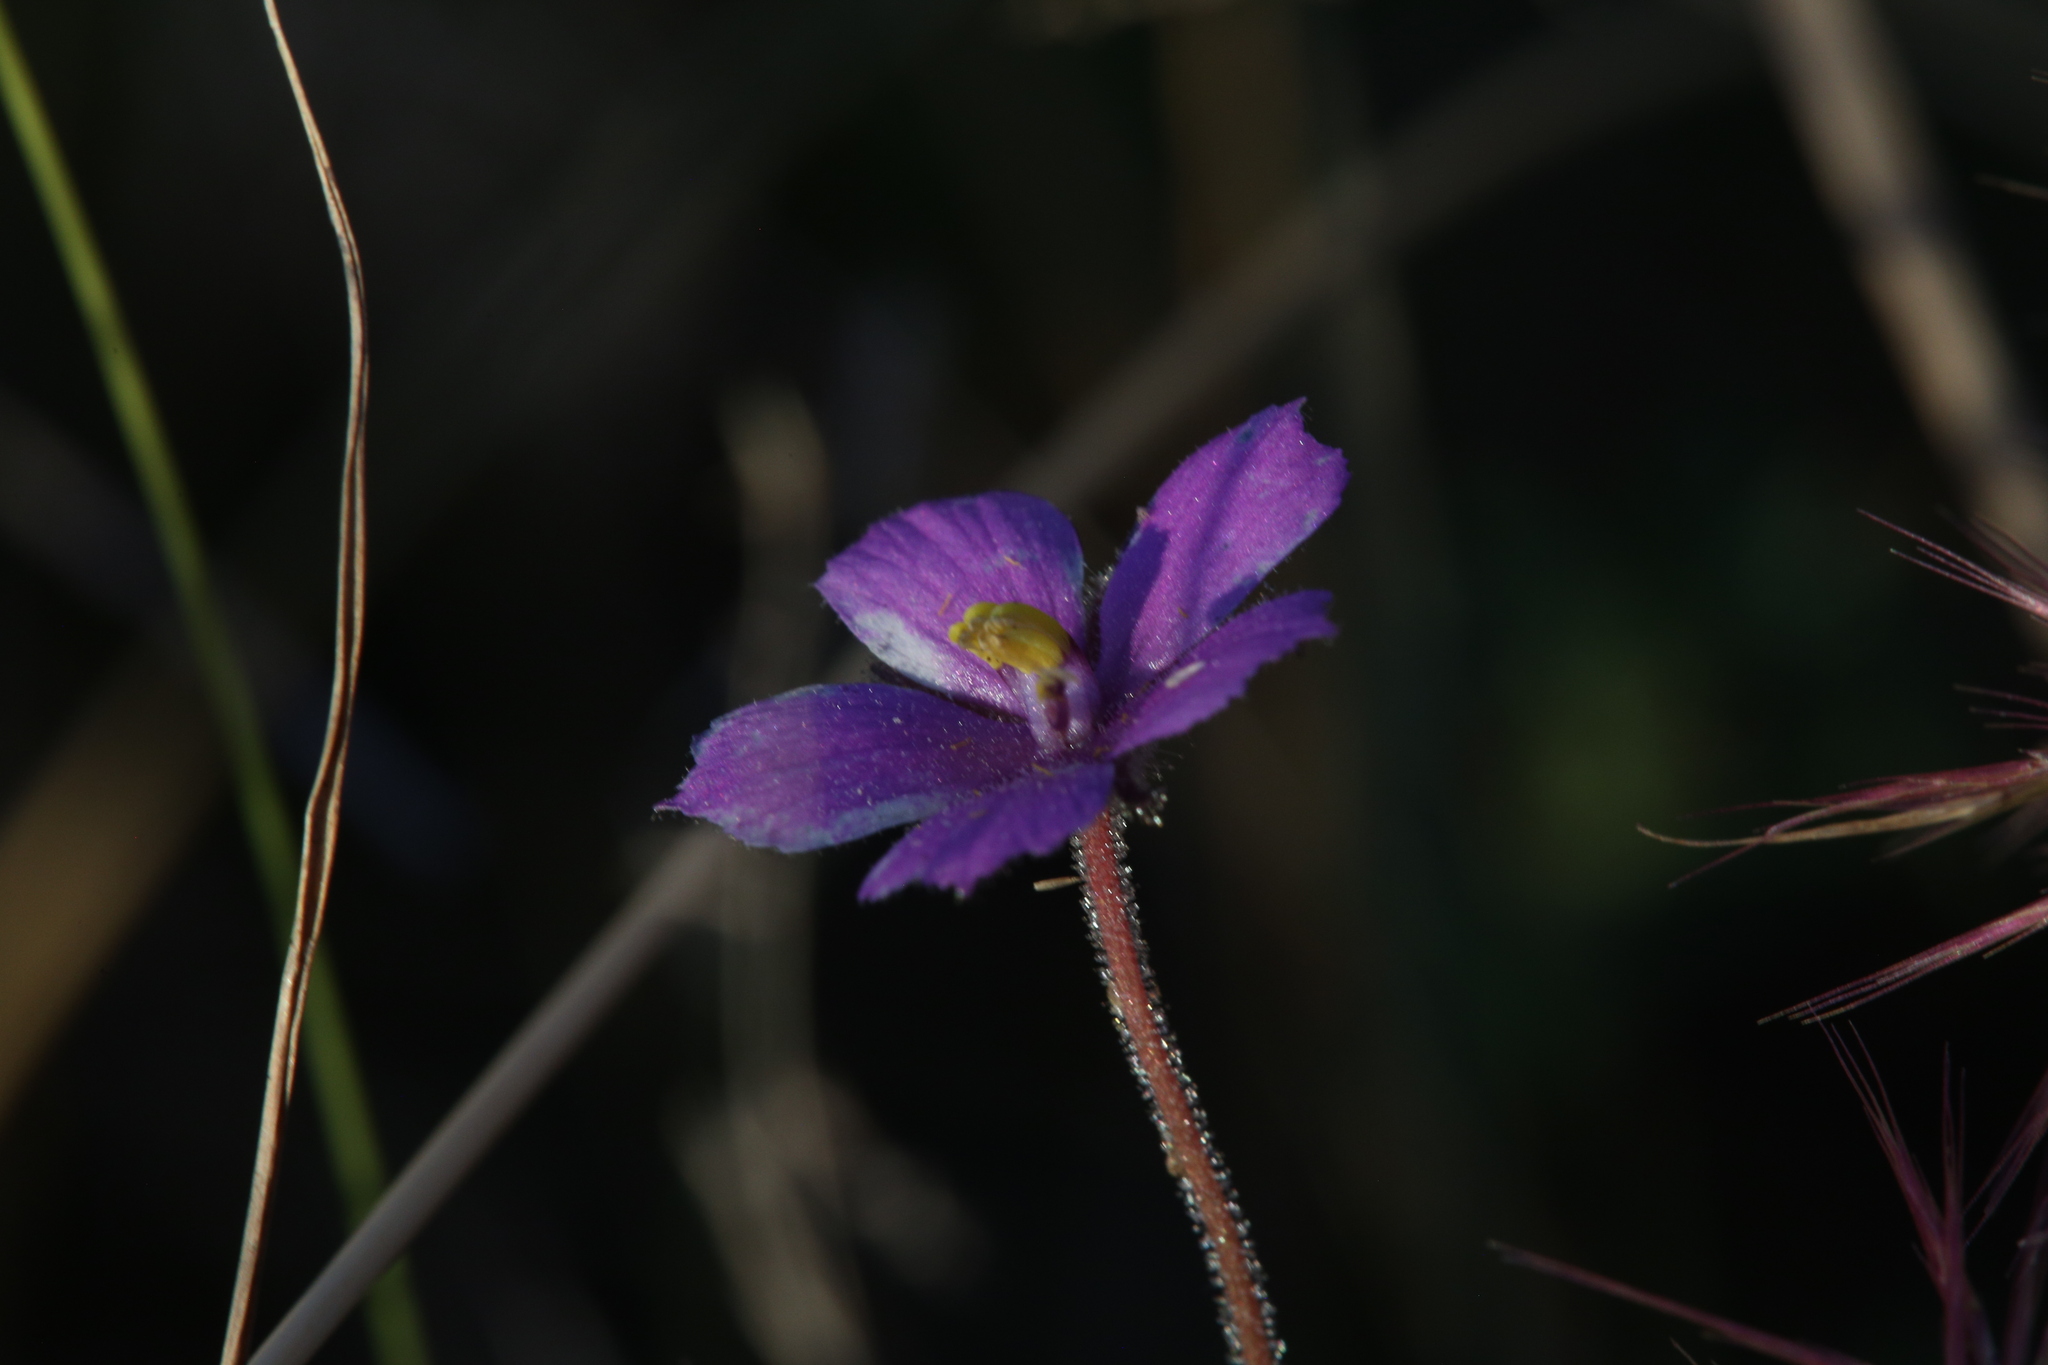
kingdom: Plantae
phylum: Tracheophyta
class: Magnoliopsida
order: Lamiales
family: Byblidaceae
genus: Byblis
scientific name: Byblis filifolia
